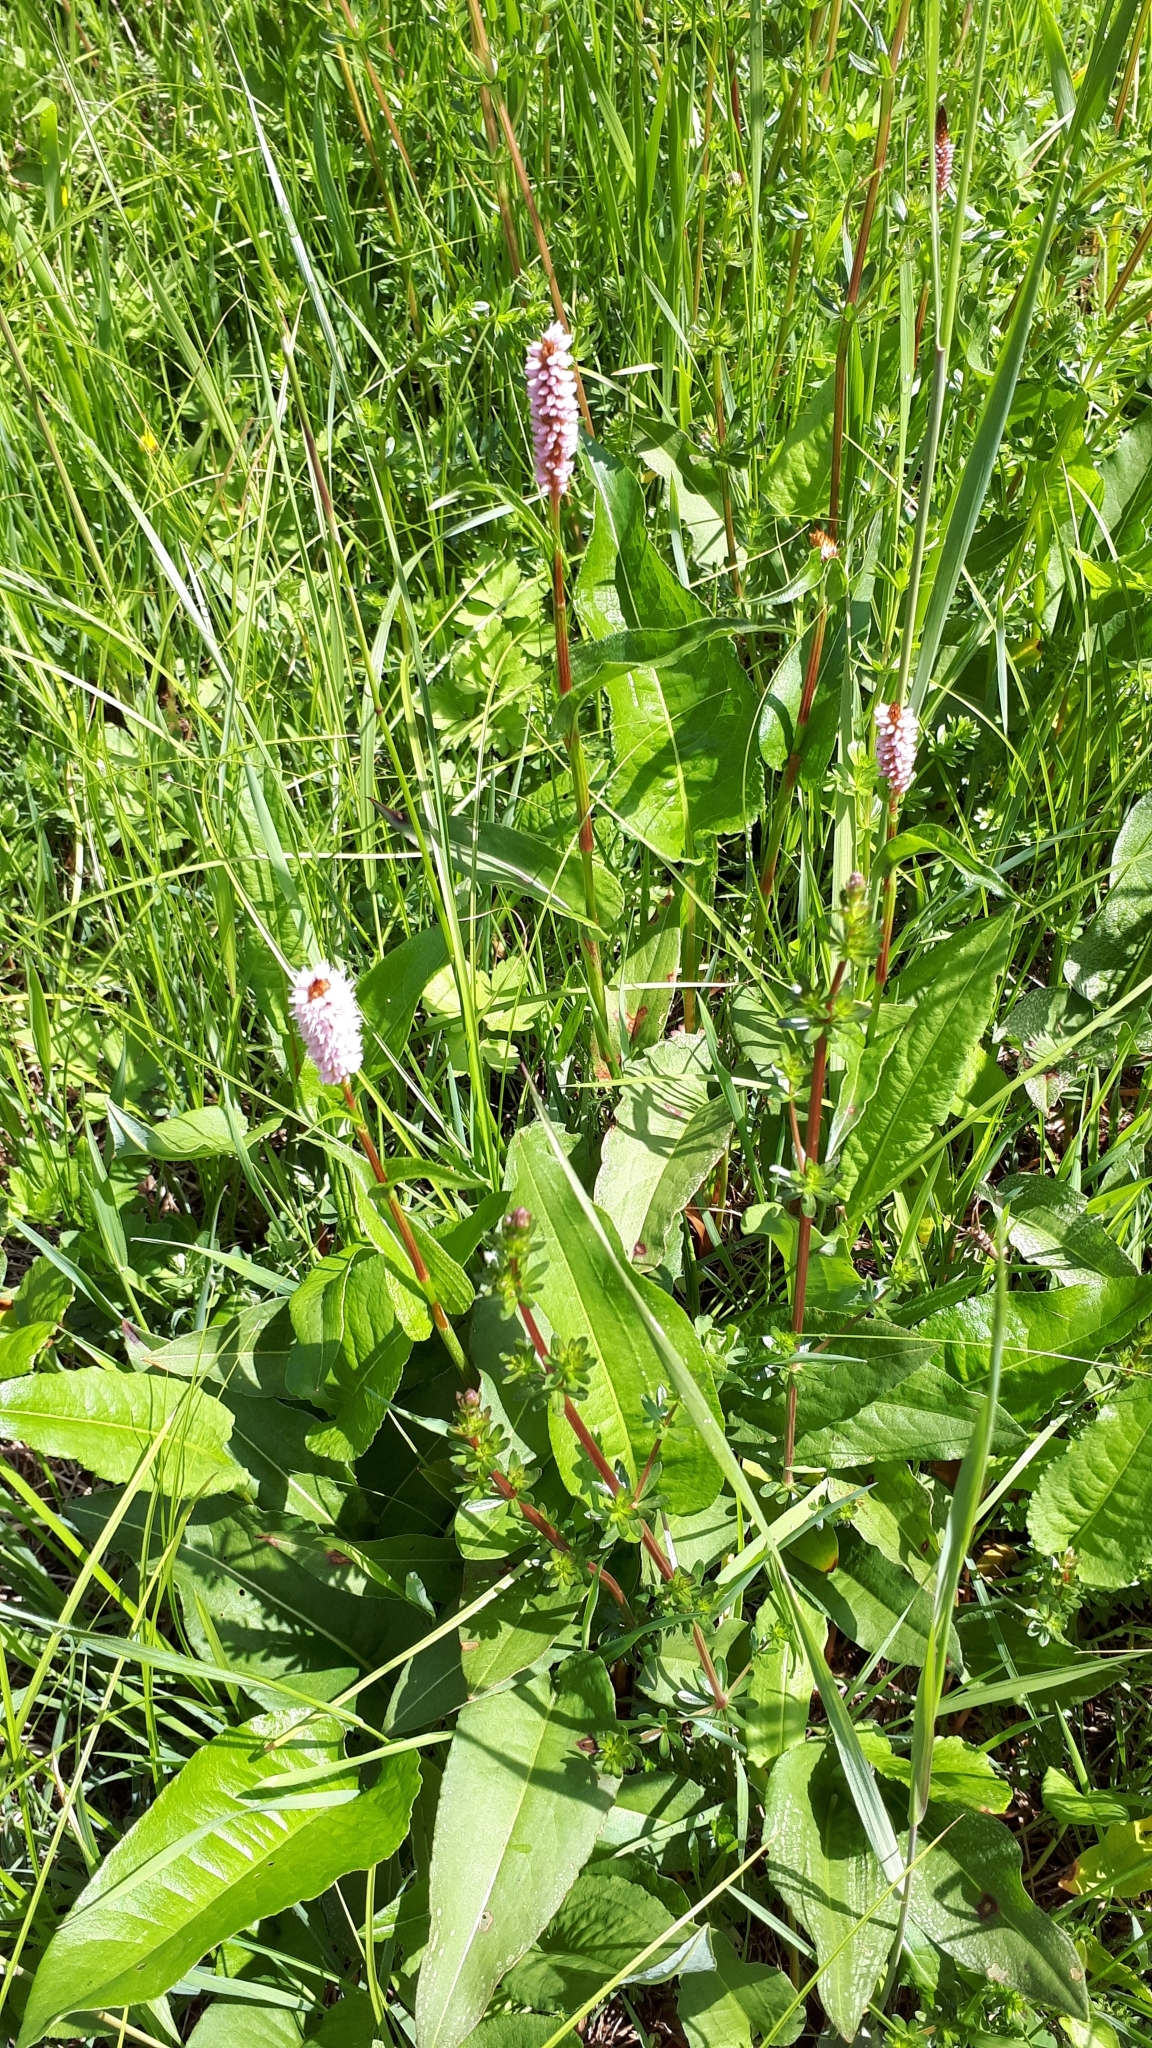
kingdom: Plantae
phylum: Tracheophyta
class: Magnoliopsida
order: Caryophyllales
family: Polygonaceae
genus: Bistorta
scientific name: Bistorta officinalis
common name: Common bistort
